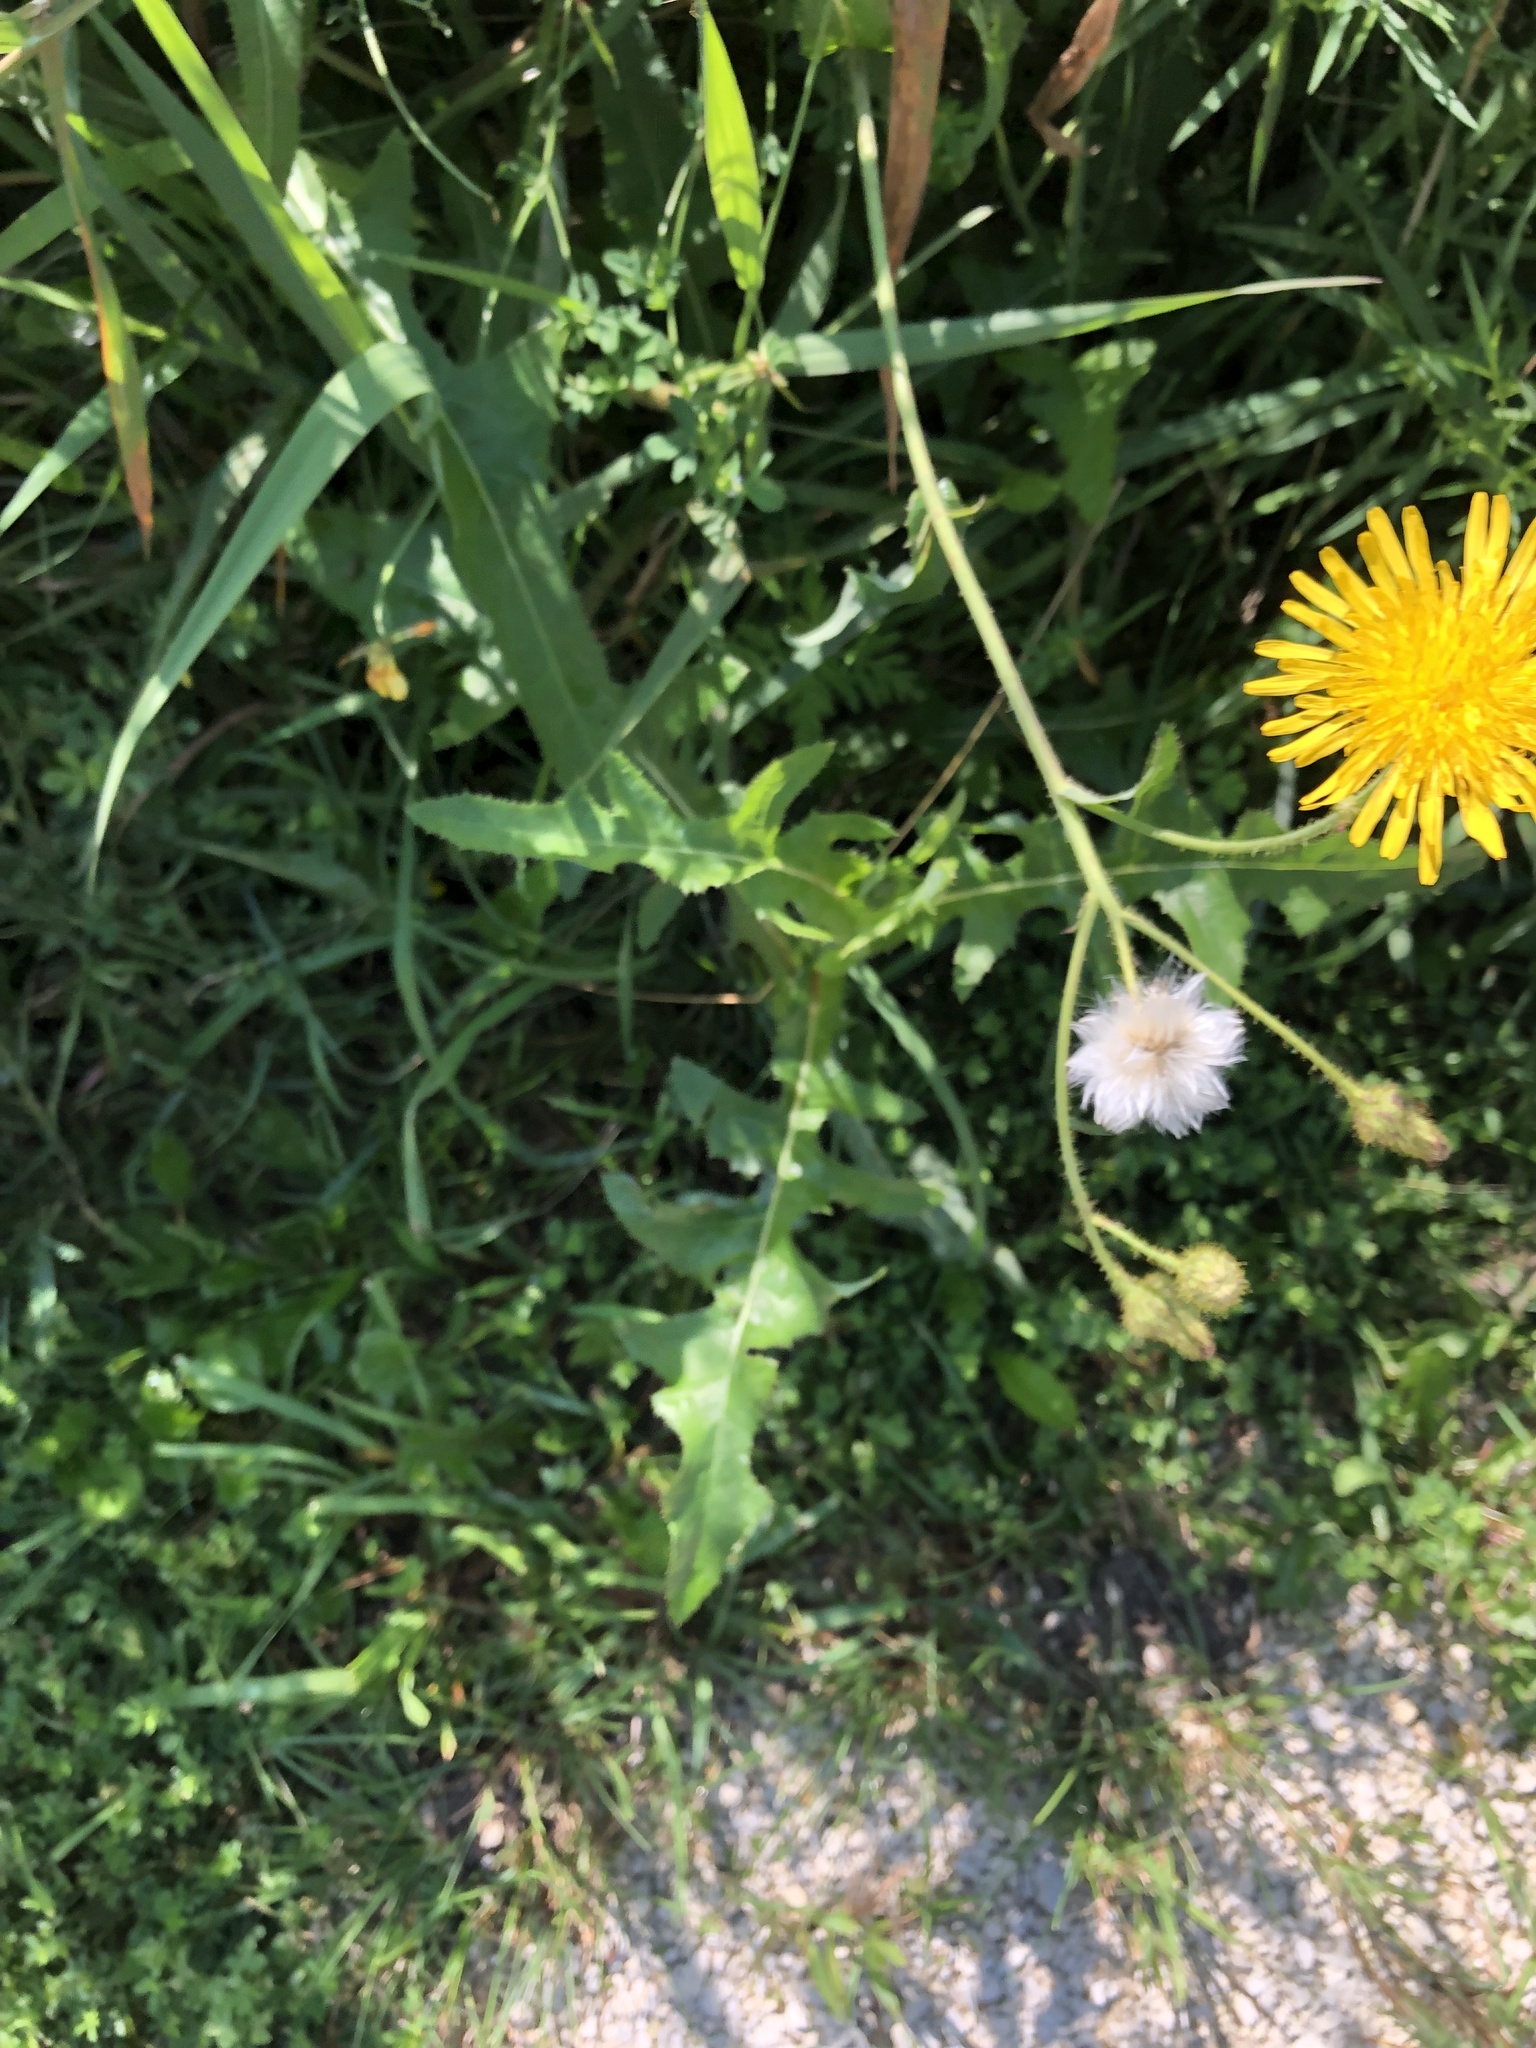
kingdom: Plantae
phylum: Tracheophyta
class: Magnoliopsida
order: Asterales
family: Asteraceae
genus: Sonchus
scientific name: Sonchus arvensis
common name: Perennial sow-thistle
